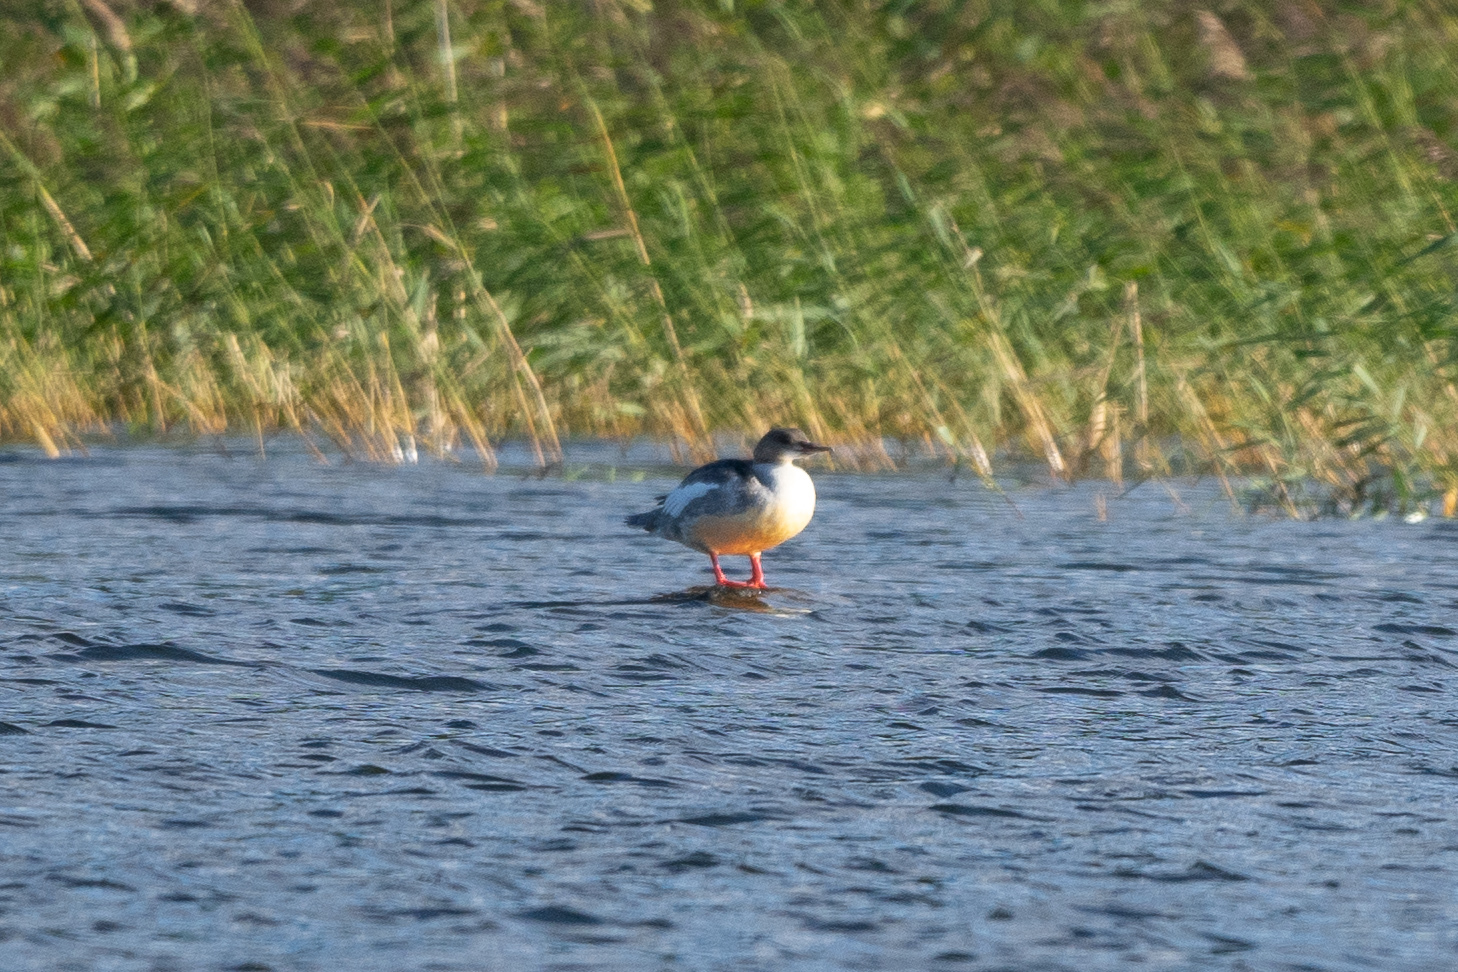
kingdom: Animalia
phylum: Chordata
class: Aves
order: Anseriformes
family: Anatidae
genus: Mergus
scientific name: Mergus merganser
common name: Common merganser
